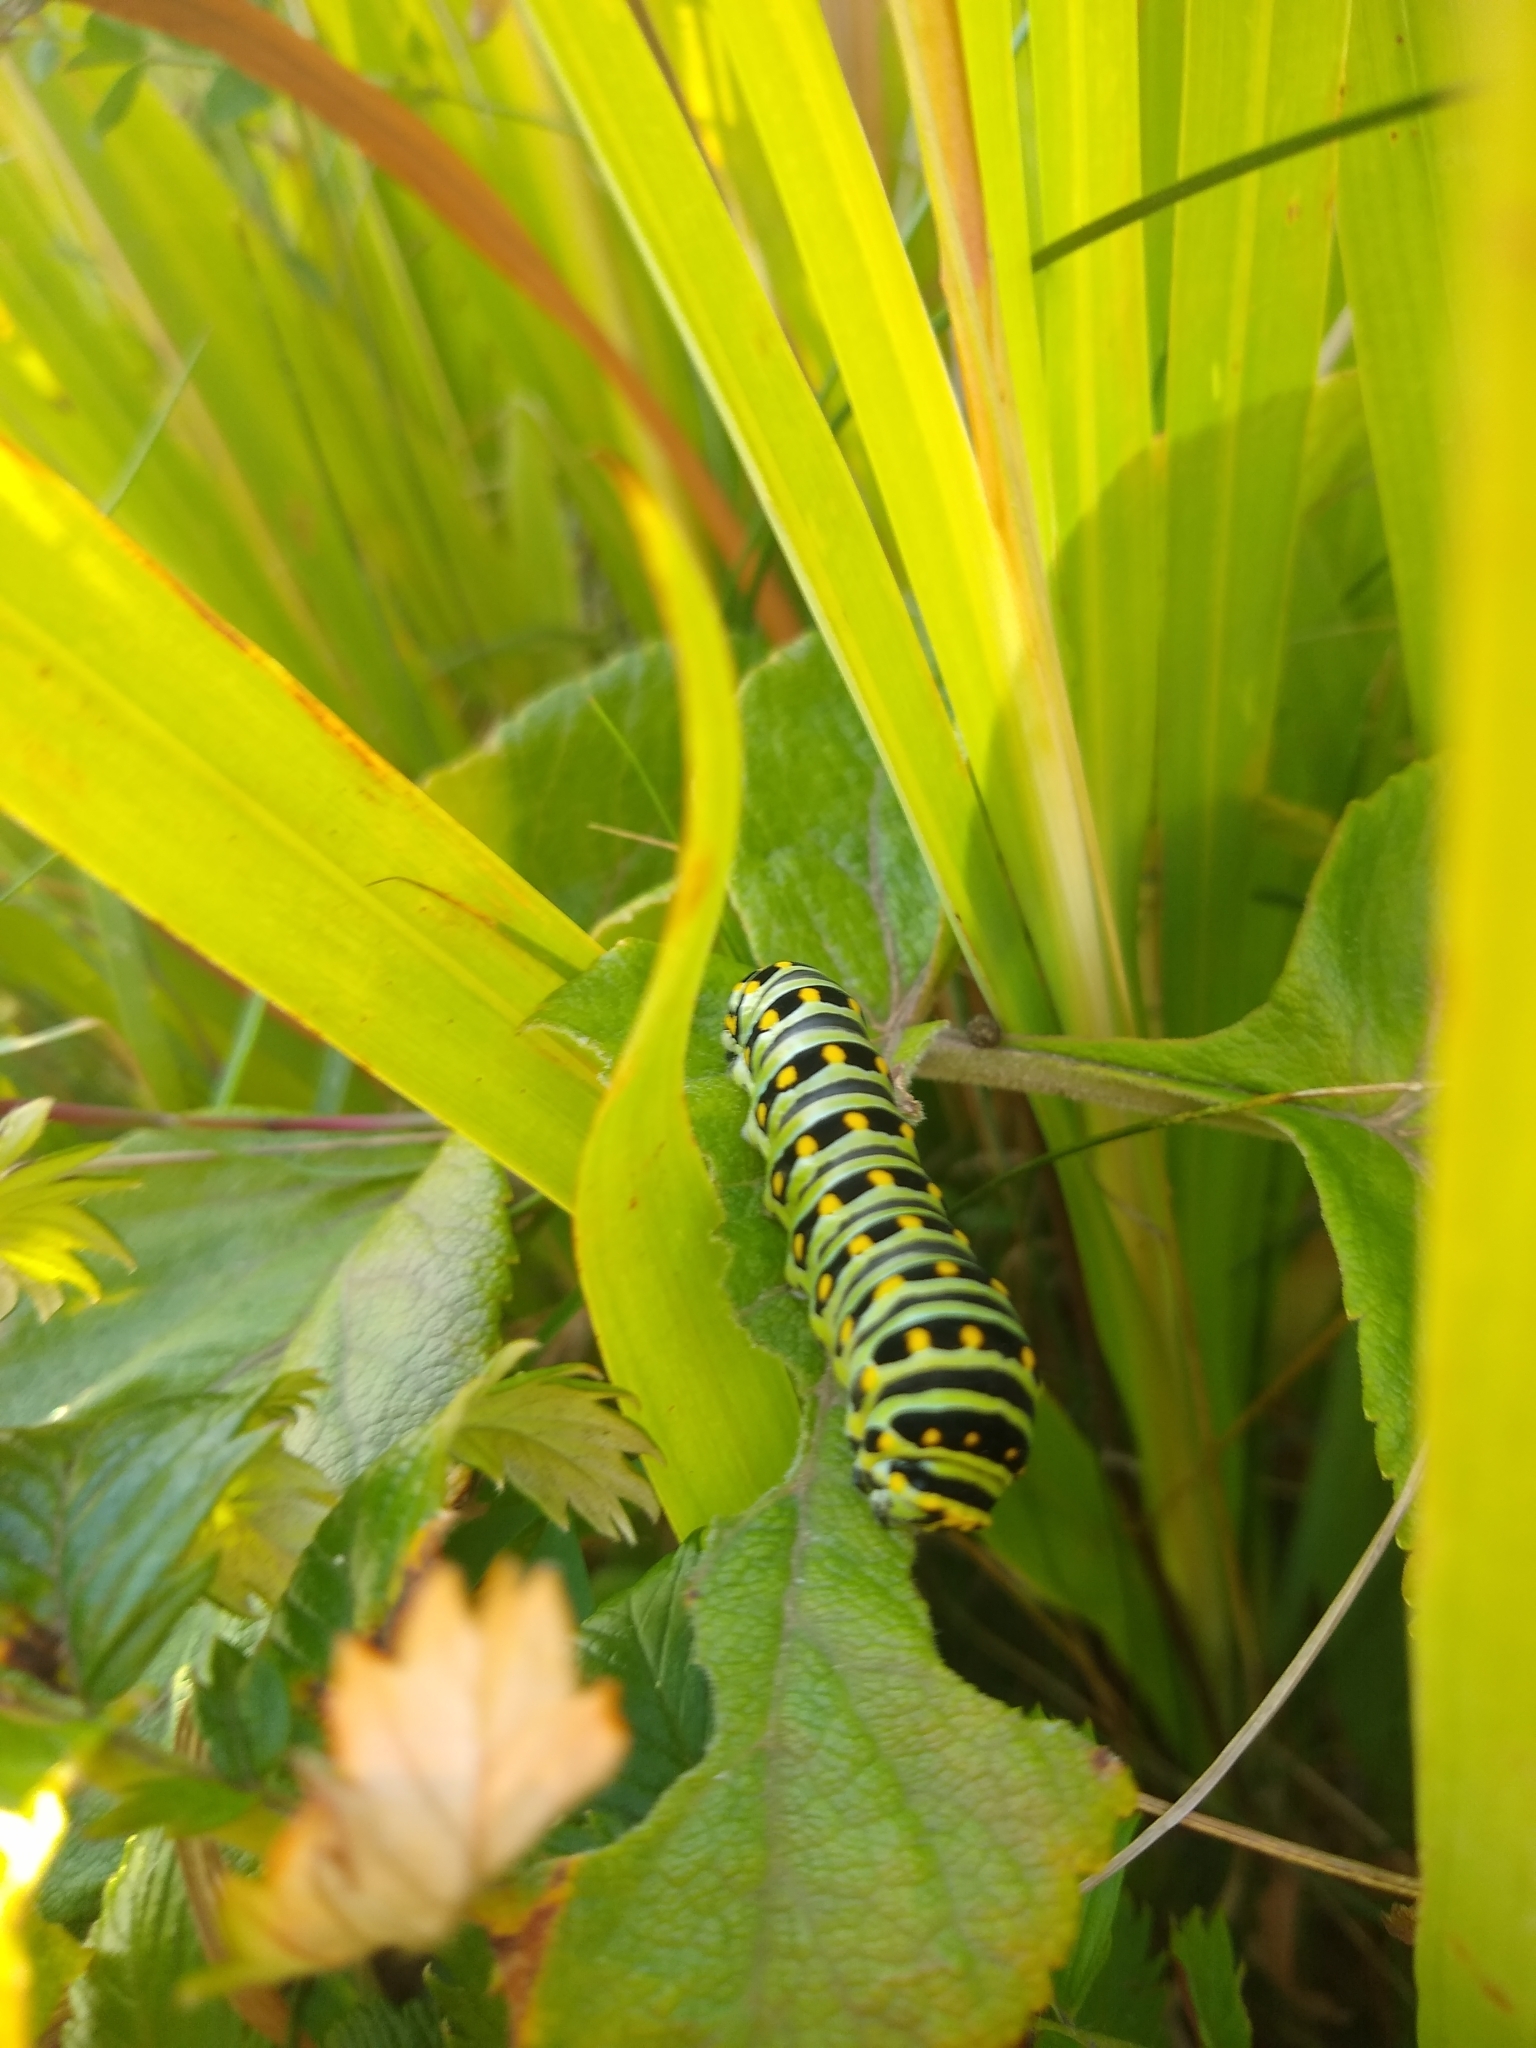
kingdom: Animalia
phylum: Arthropoda
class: Insecta
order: Lepidoptera
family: Papilionidae
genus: Papilio
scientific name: Papilio zelicaon
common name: Anise swallowtail
